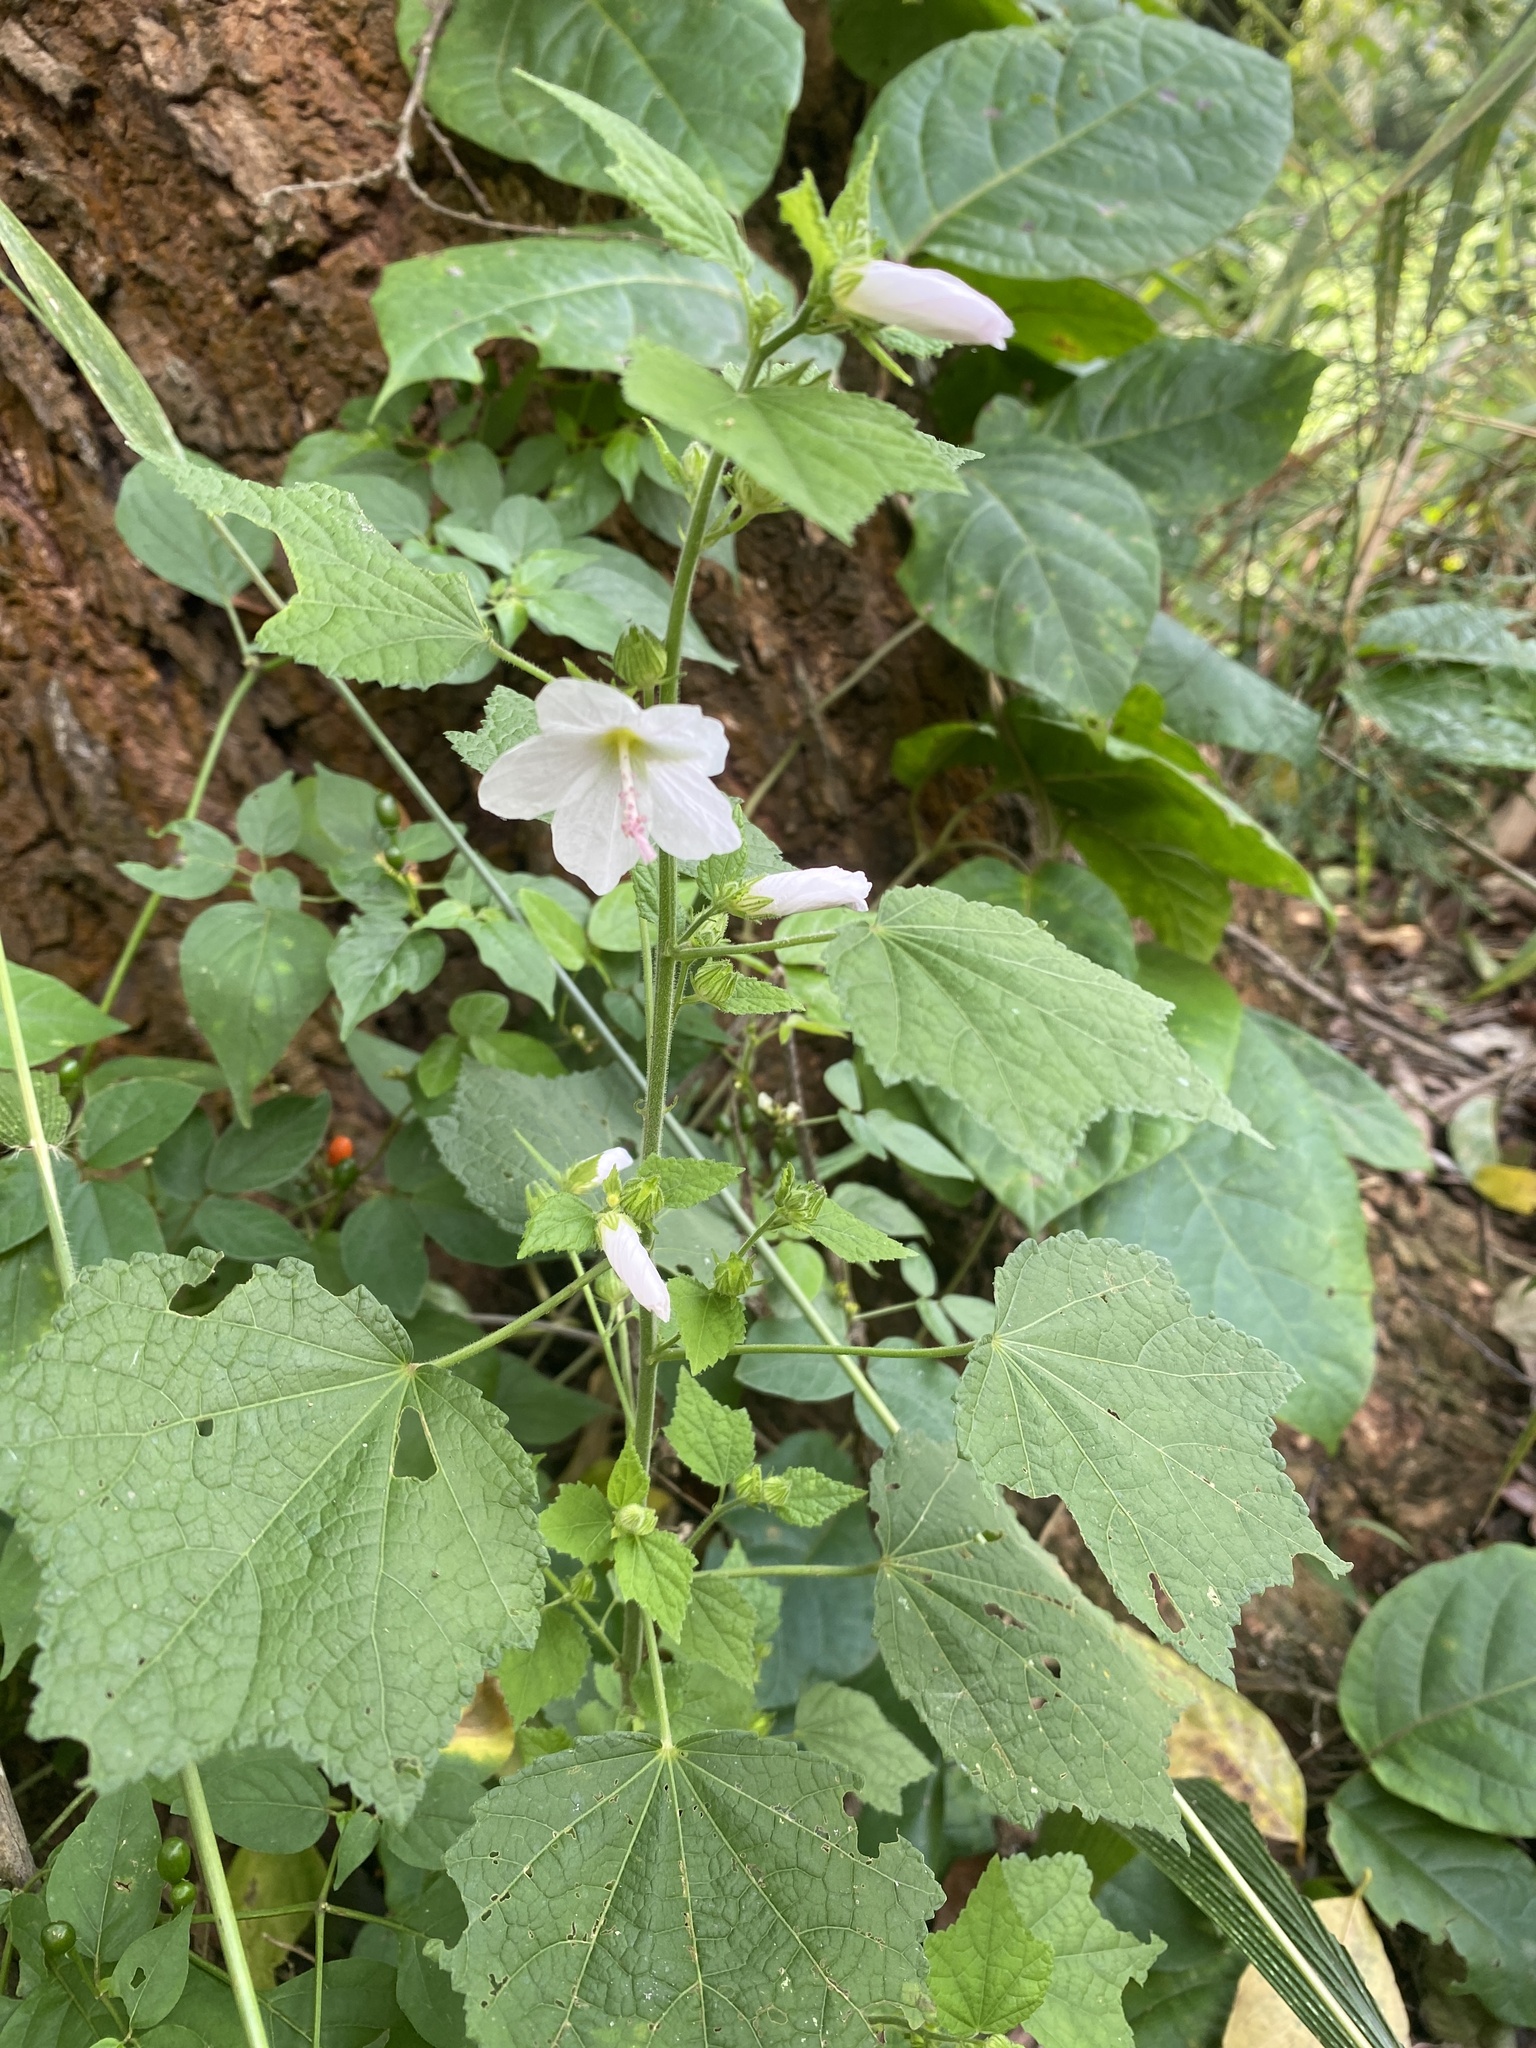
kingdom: Plantae
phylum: Tracheophyta
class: Magnoliopsida
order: Malvales
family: Malvaceae
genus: Pavonia
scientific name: Pavonia columella
